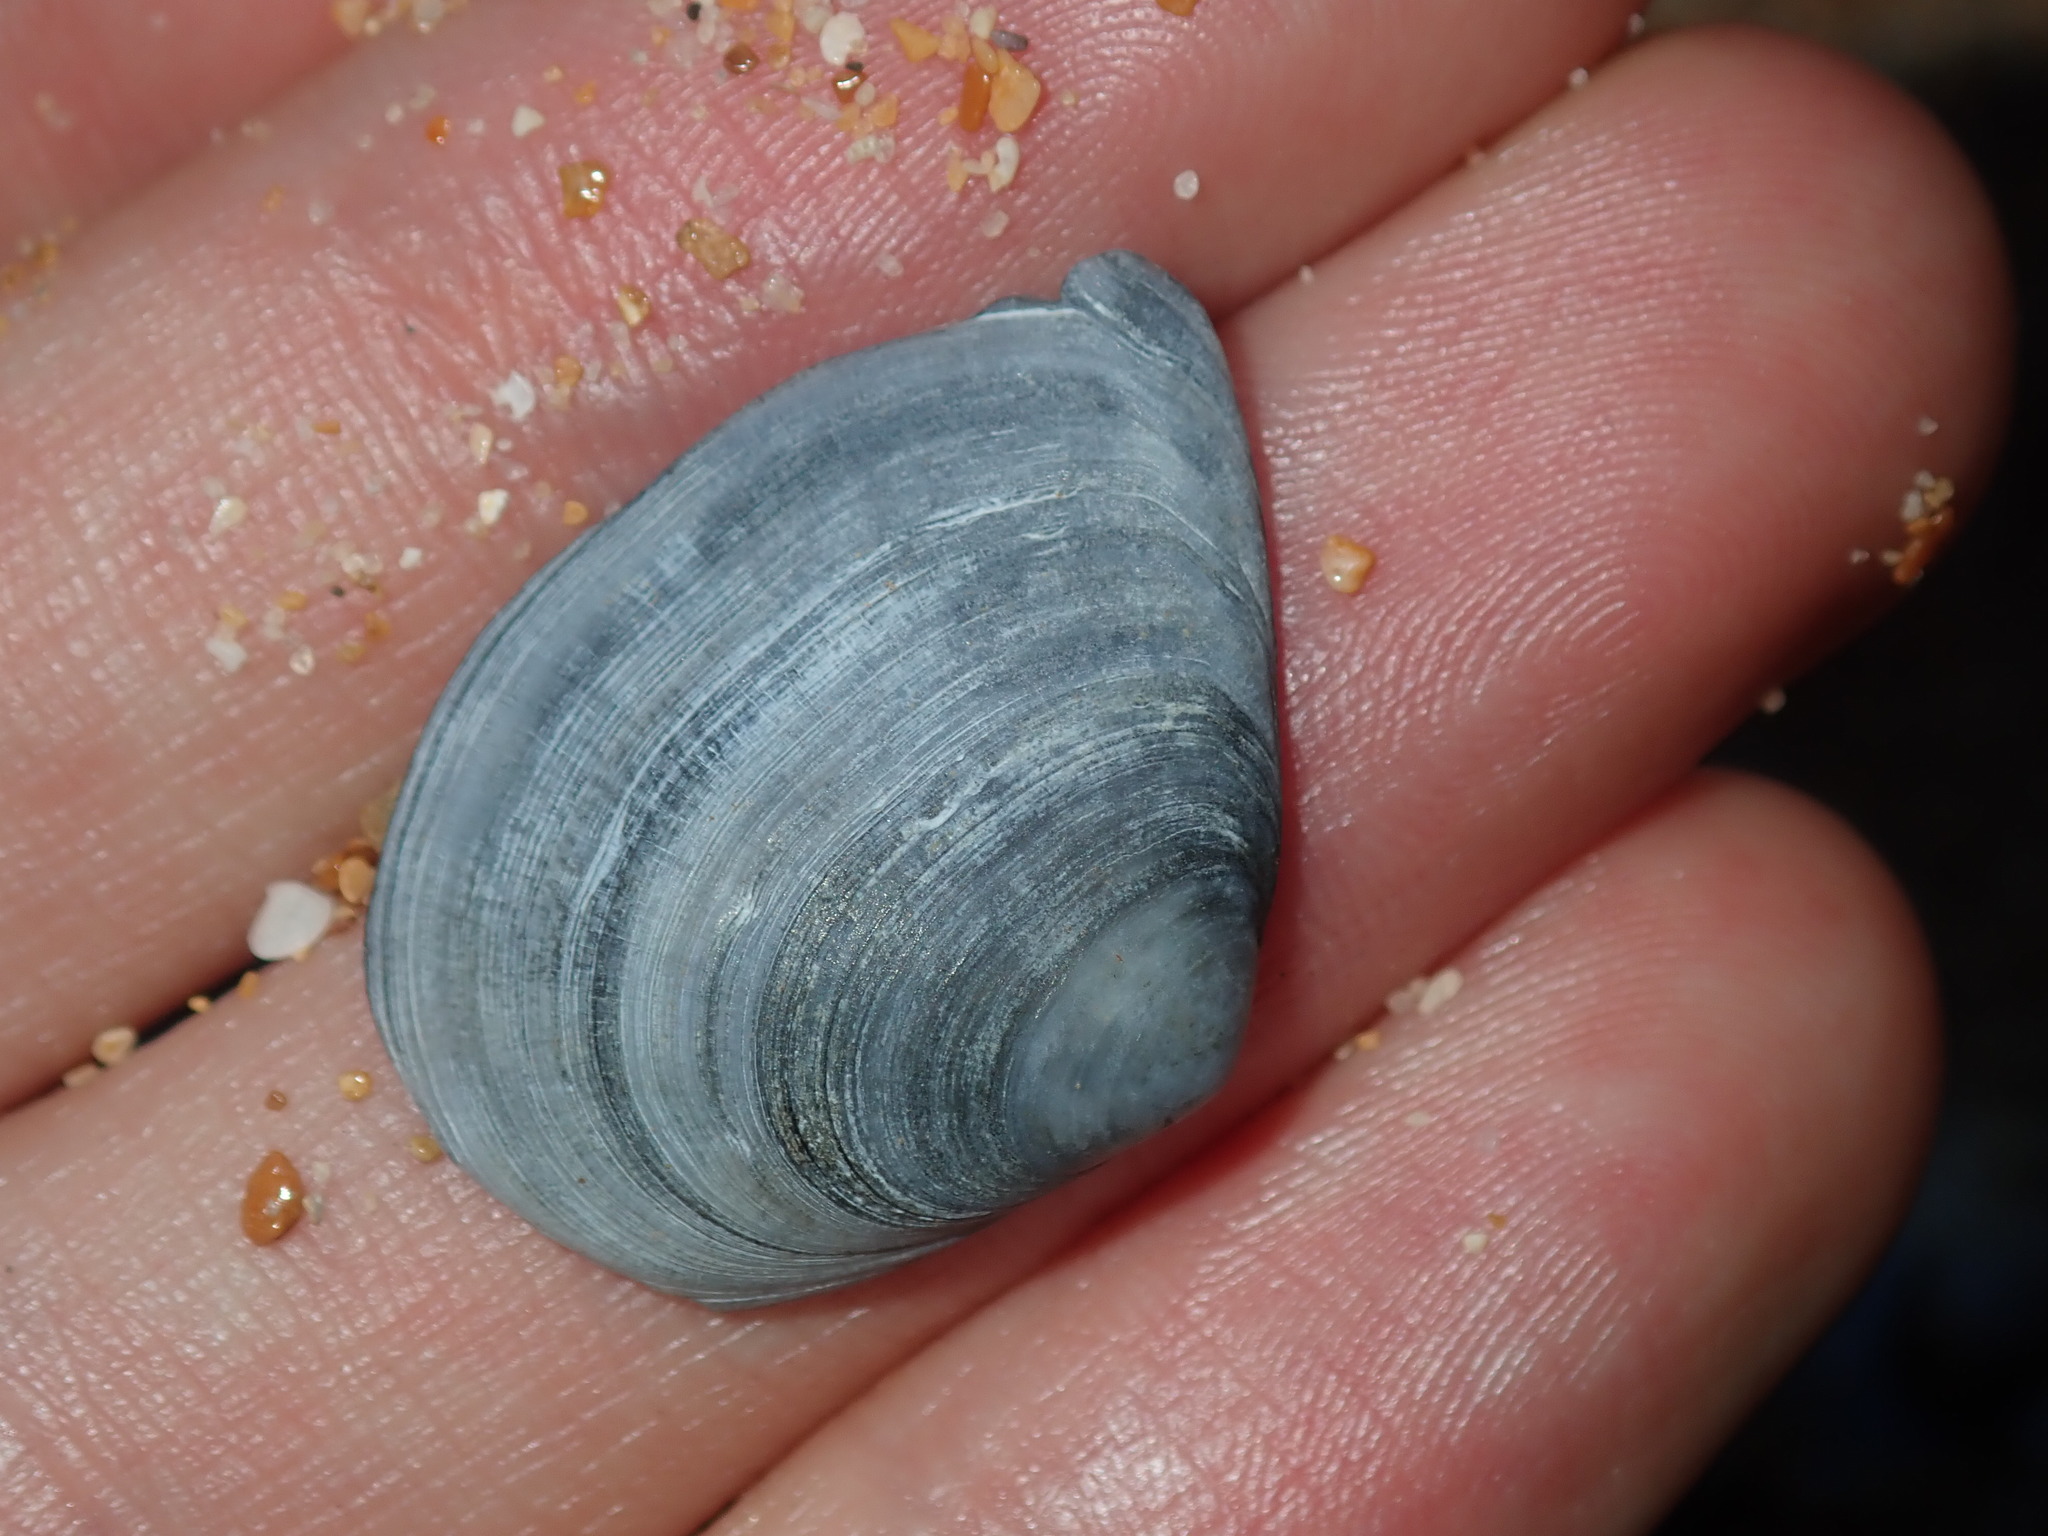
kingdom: Animalia
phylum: Mollusca
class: Bivalvia
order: Cardiida
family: Tellinidae
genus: Macomona
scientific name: Macomona deltoidalis
